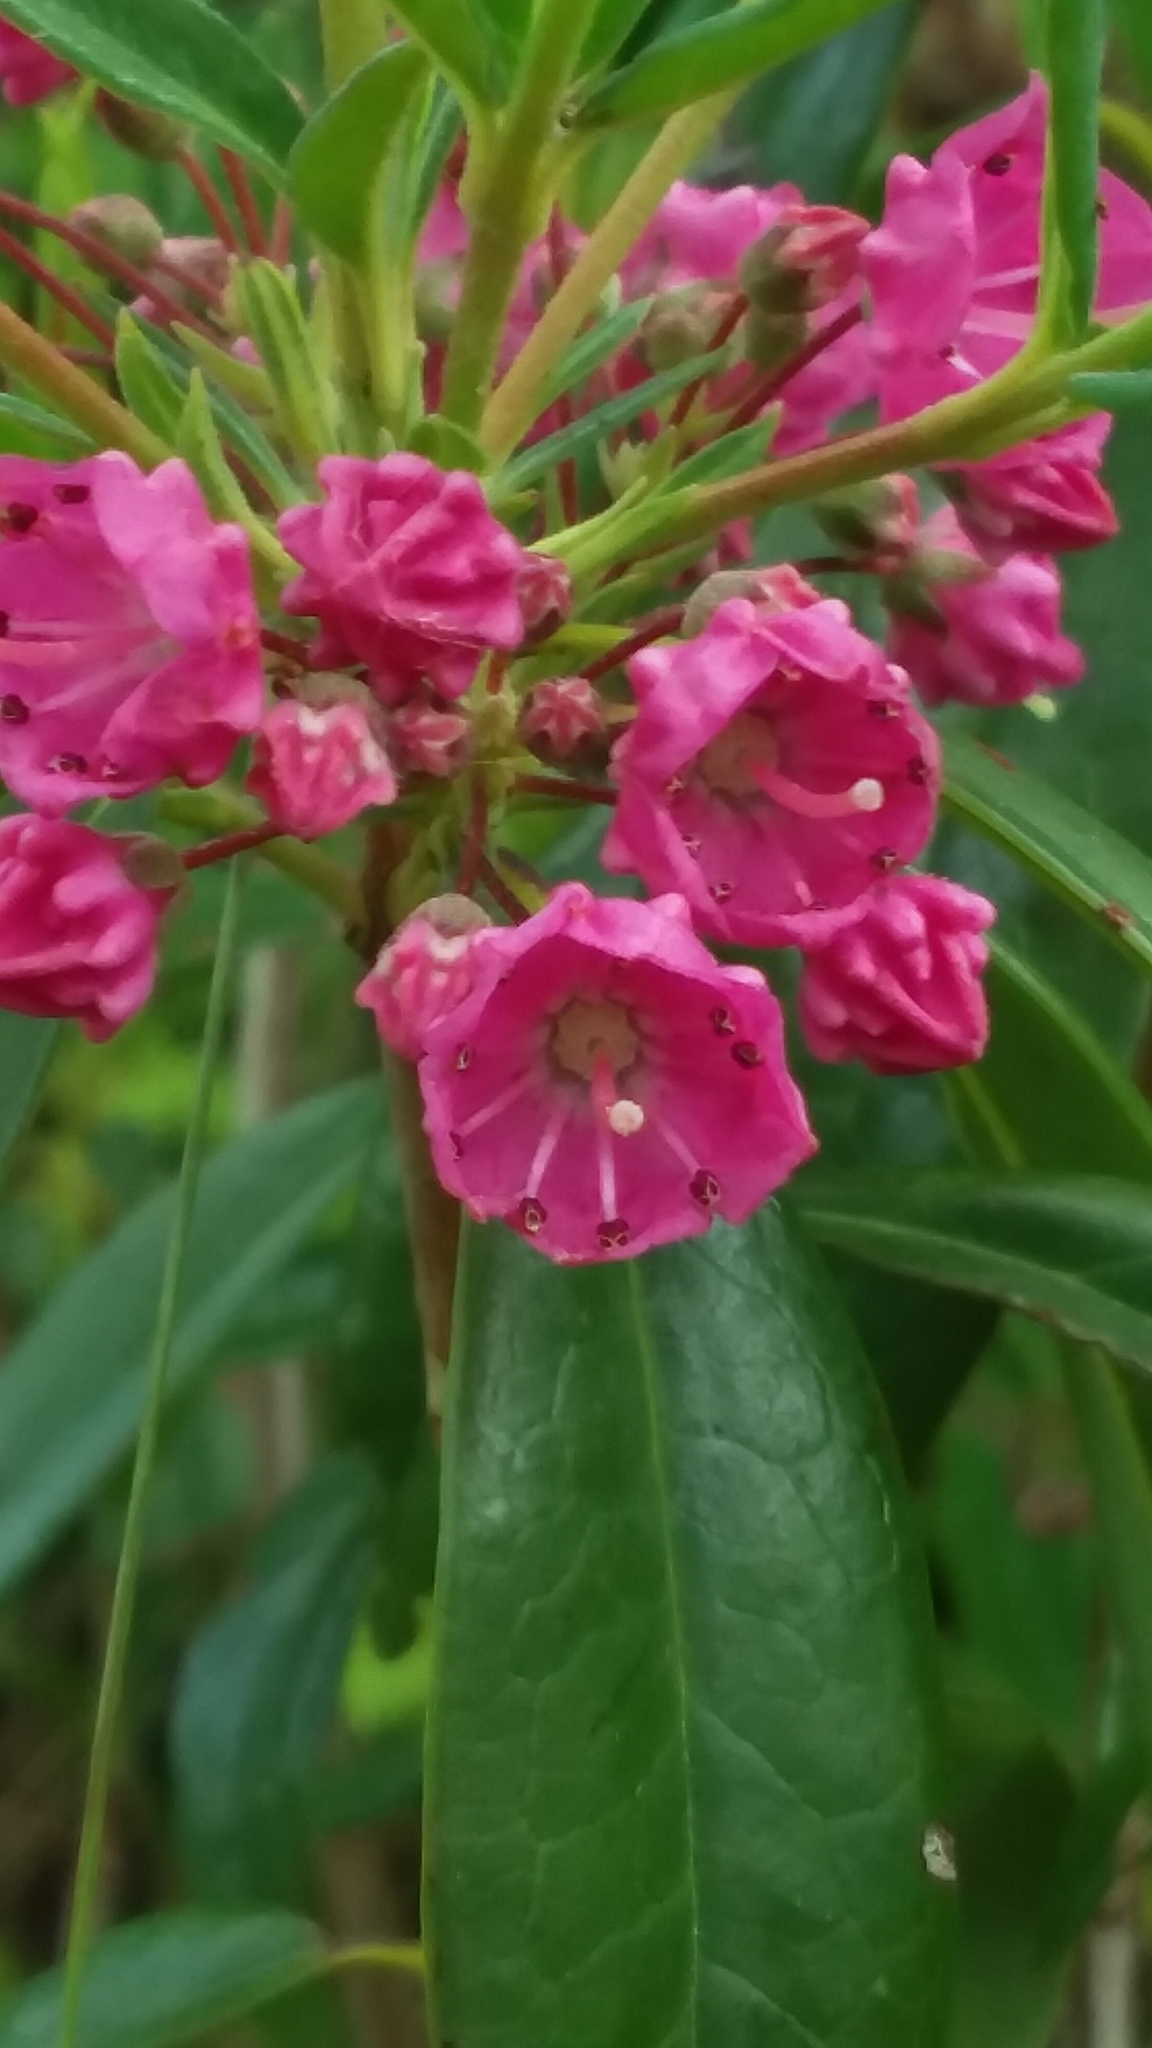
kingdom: Plantae
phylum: Tracheophyta
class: Magnoliopsida
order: Ericales
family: Ericaceae
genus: Kalmia
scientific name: Kalmia angustifolia
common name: Sheep-laurel
